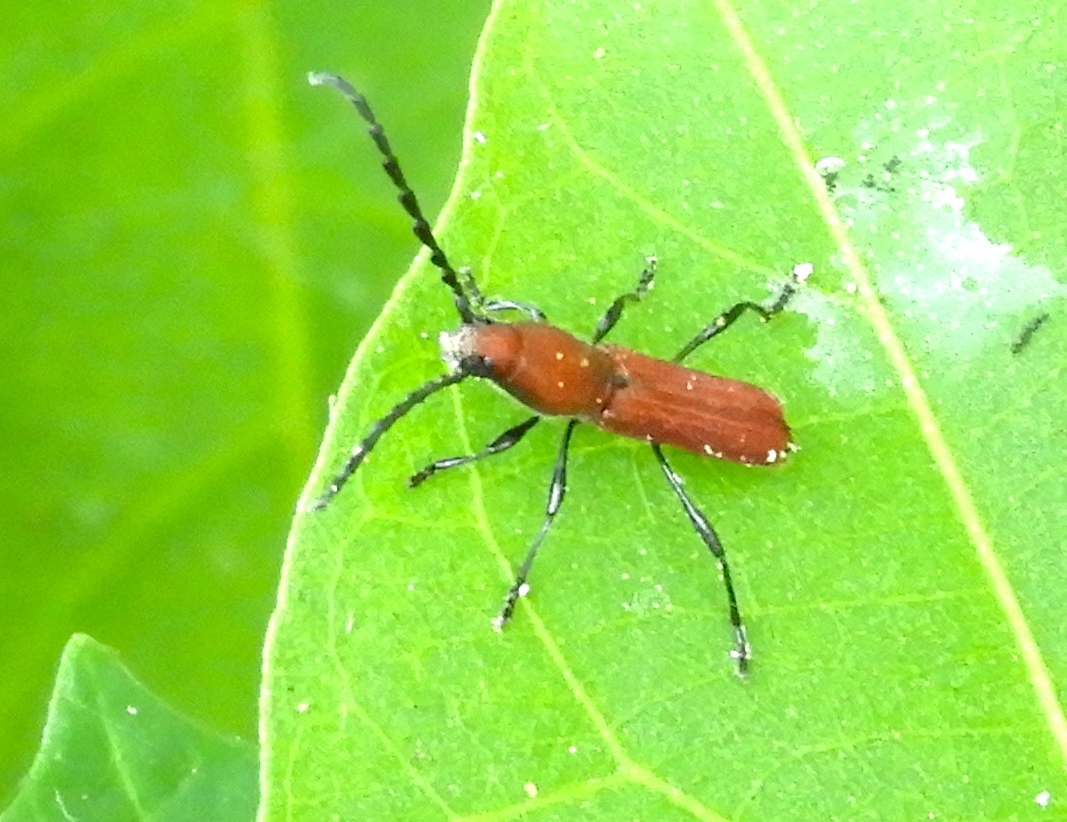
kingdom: Animalia
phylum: Arthropoda
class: Insecta
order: Coleoptera
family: Cerambycidae
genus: Assycuera
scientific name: Assycuera rubella
